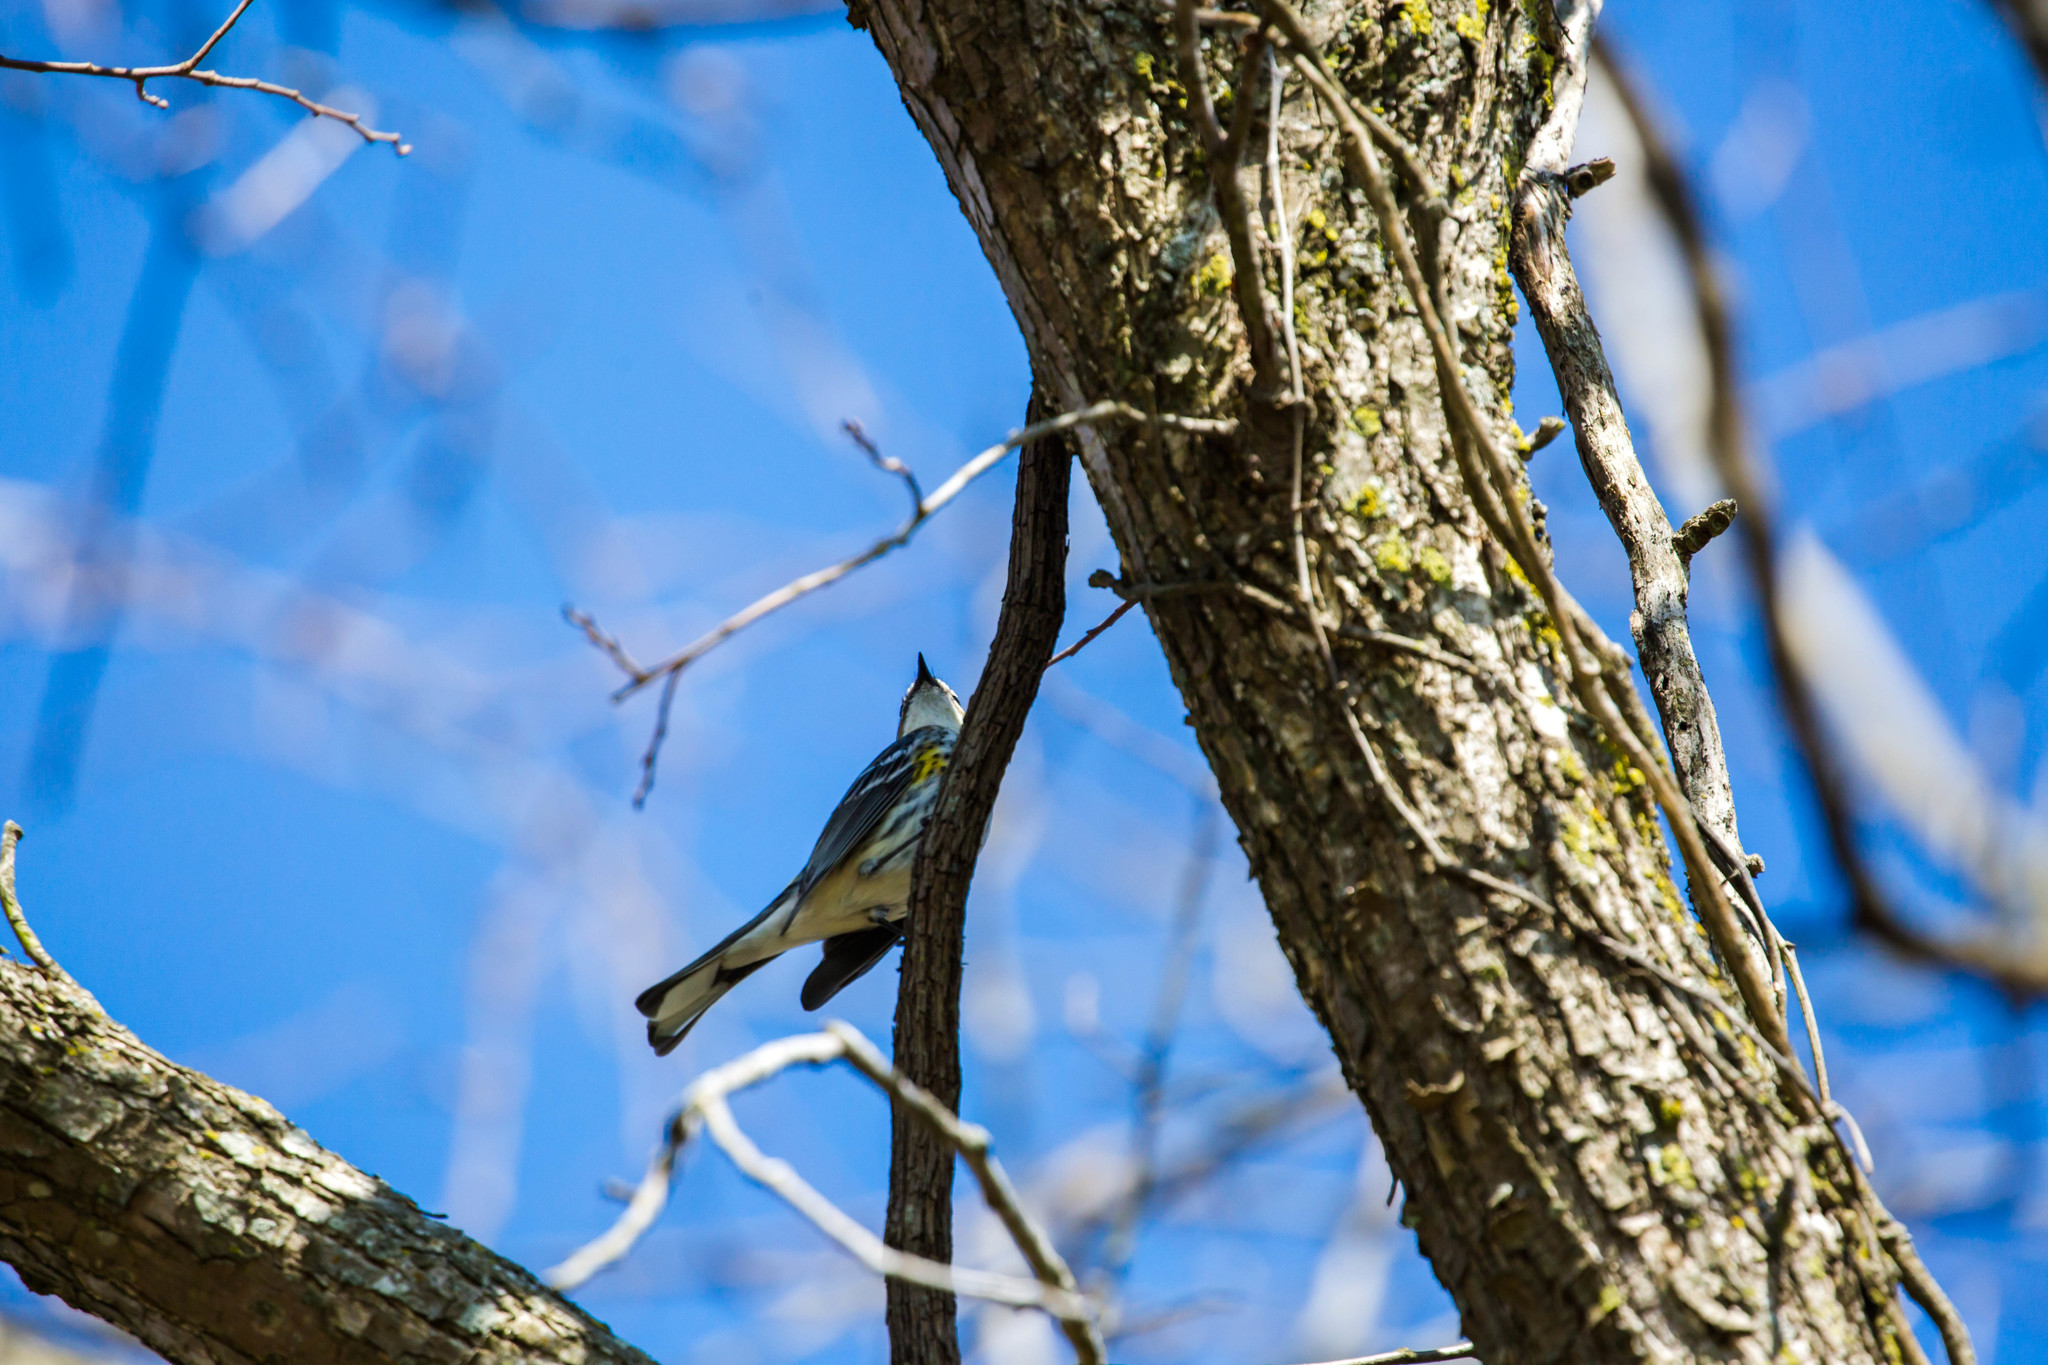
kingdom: Animalia
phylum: Chordata
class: Aves
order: Passeriformes
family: Parulidae
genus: Setophaga
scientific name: Setophaga coronata
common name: Myrtle warbler
